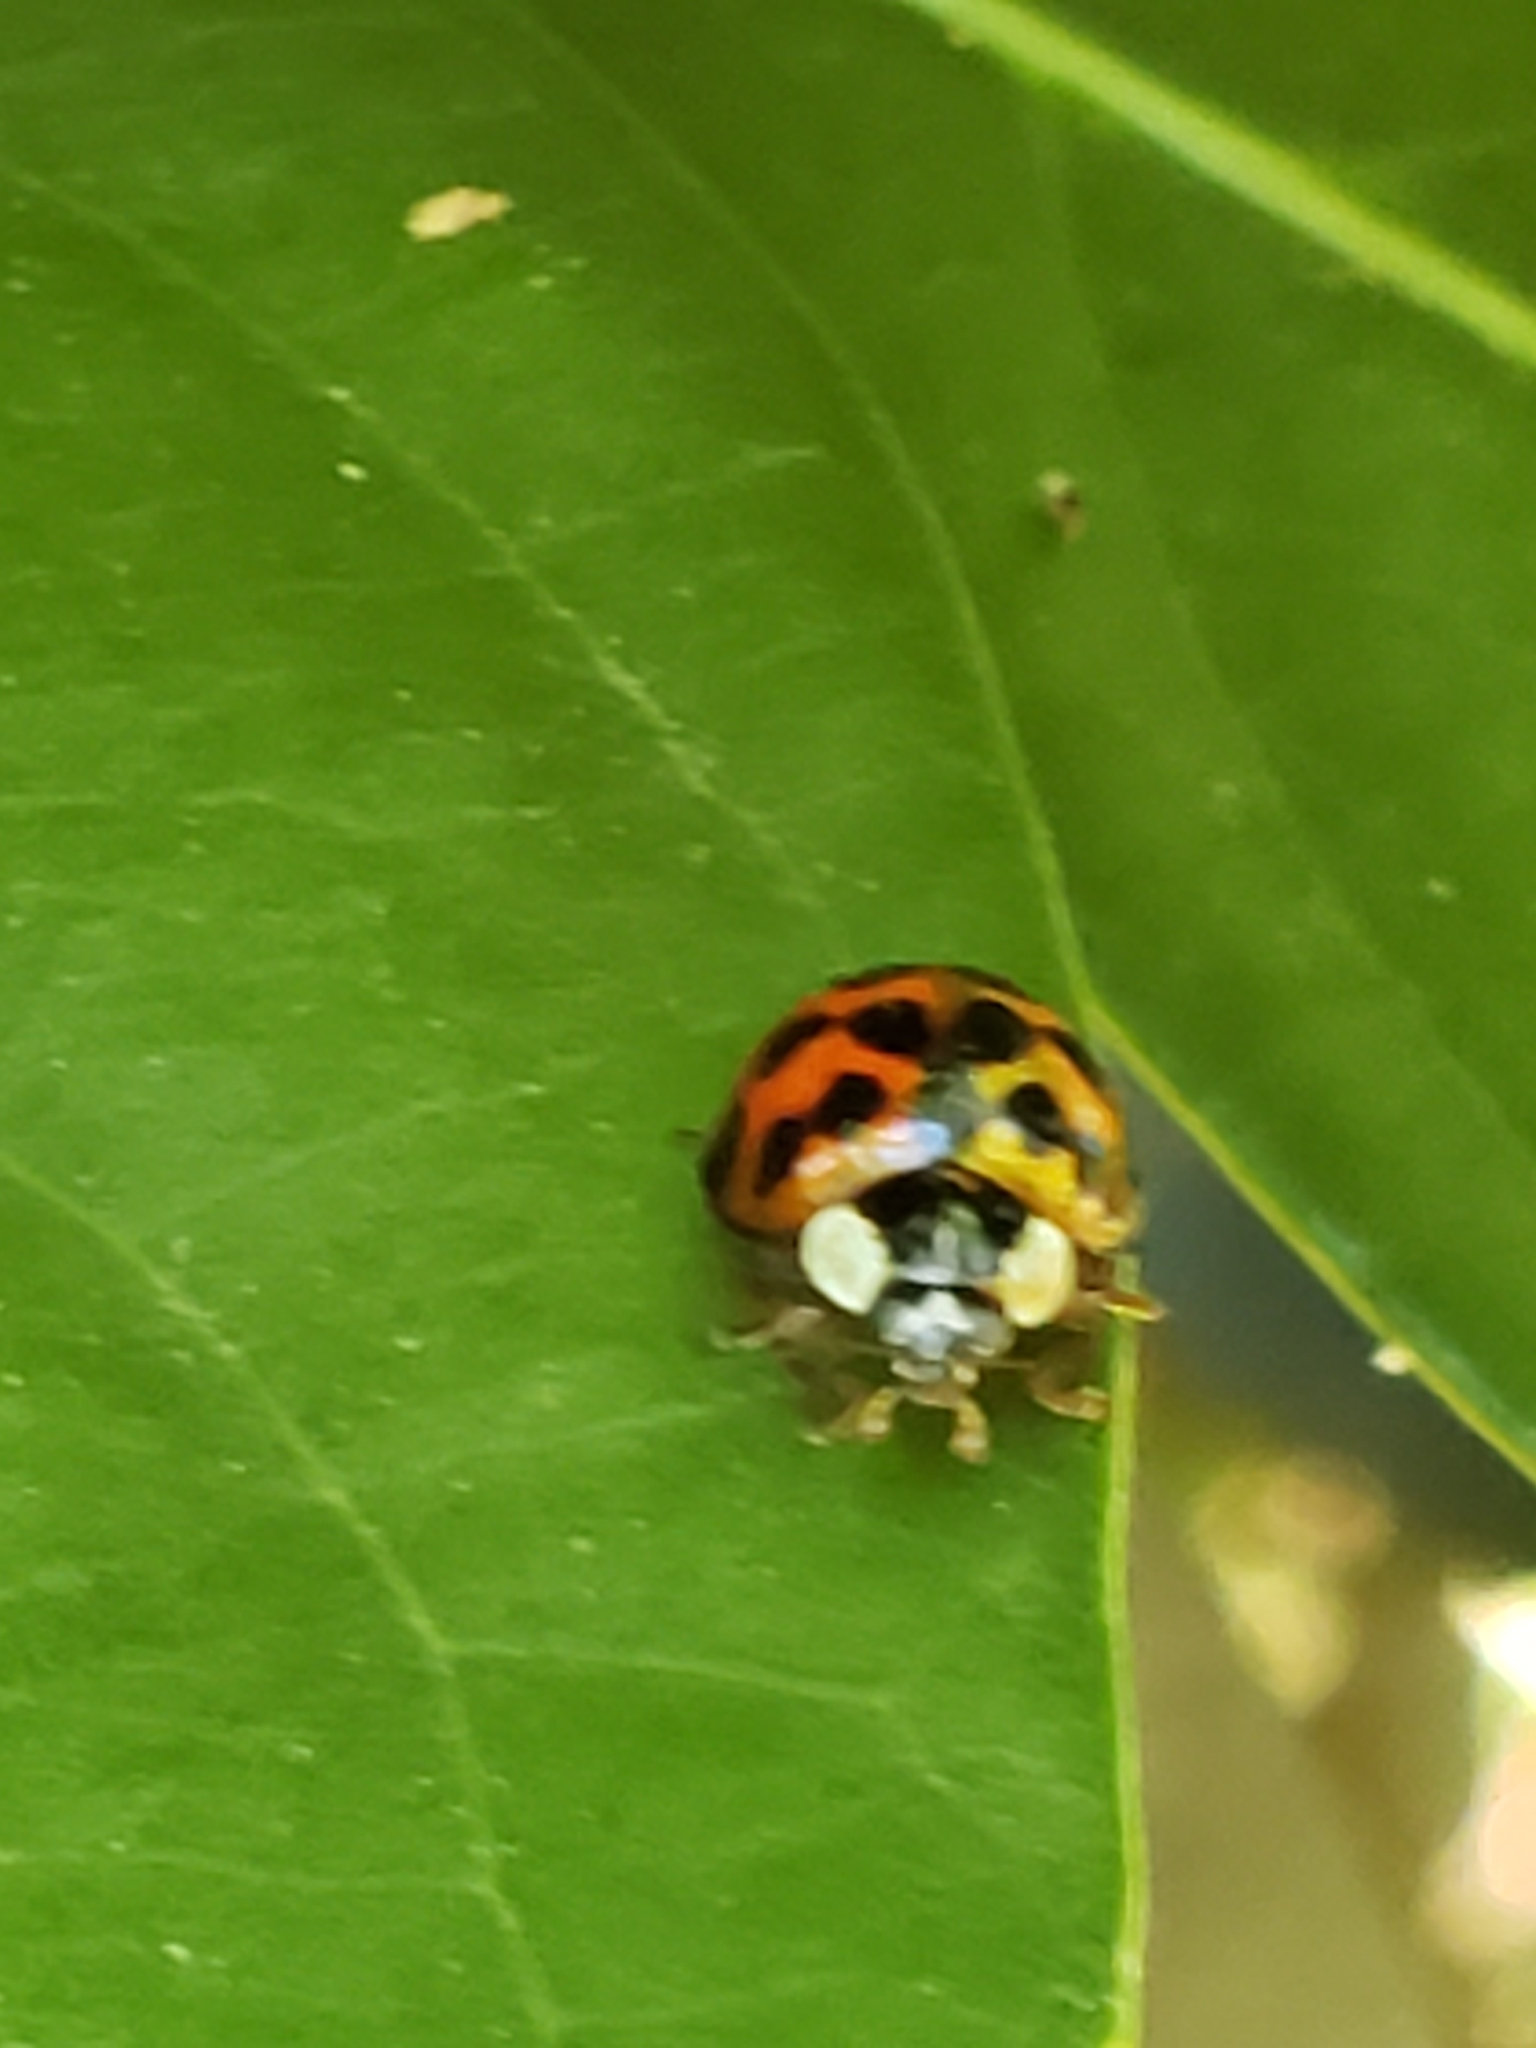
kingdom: Animalia
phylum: Arthropoda
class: Insecta
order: Coleoptera
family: Coccinellidae
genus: Harmonia
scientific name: Harmonia axyridis
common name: Harlequin ladybird
